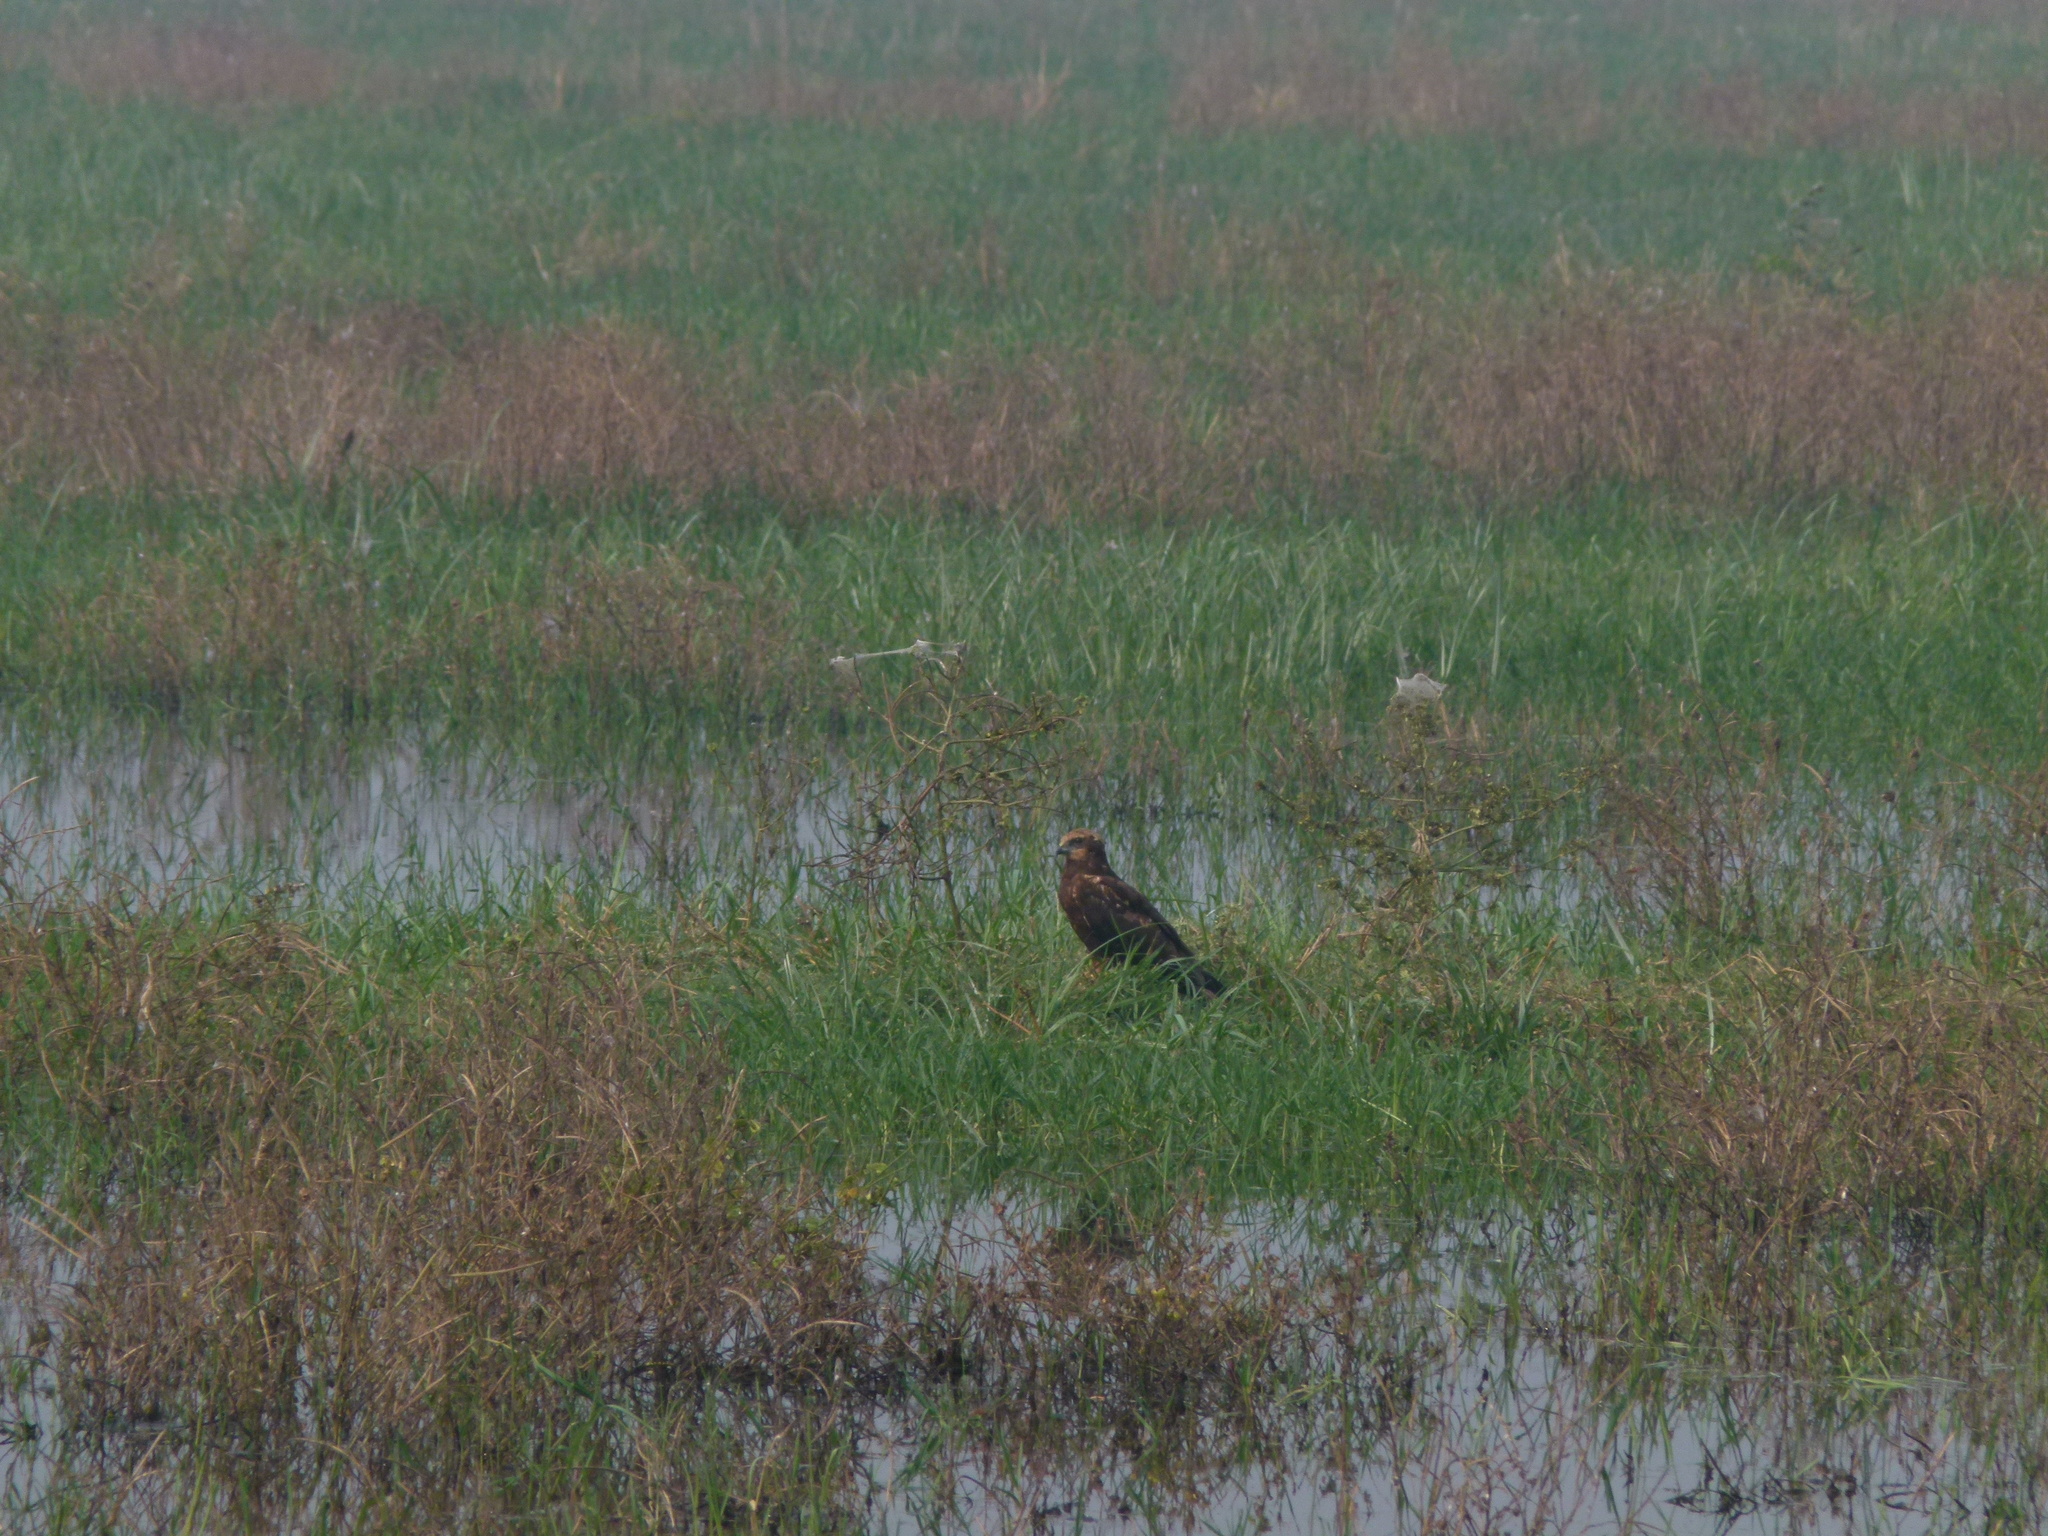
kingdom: Animalia
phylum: Chordata
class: Aves
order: Accipitriformes
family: Accipitridae
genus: Circus
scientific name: Circus aeruginosus
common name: Western marsh harrier
